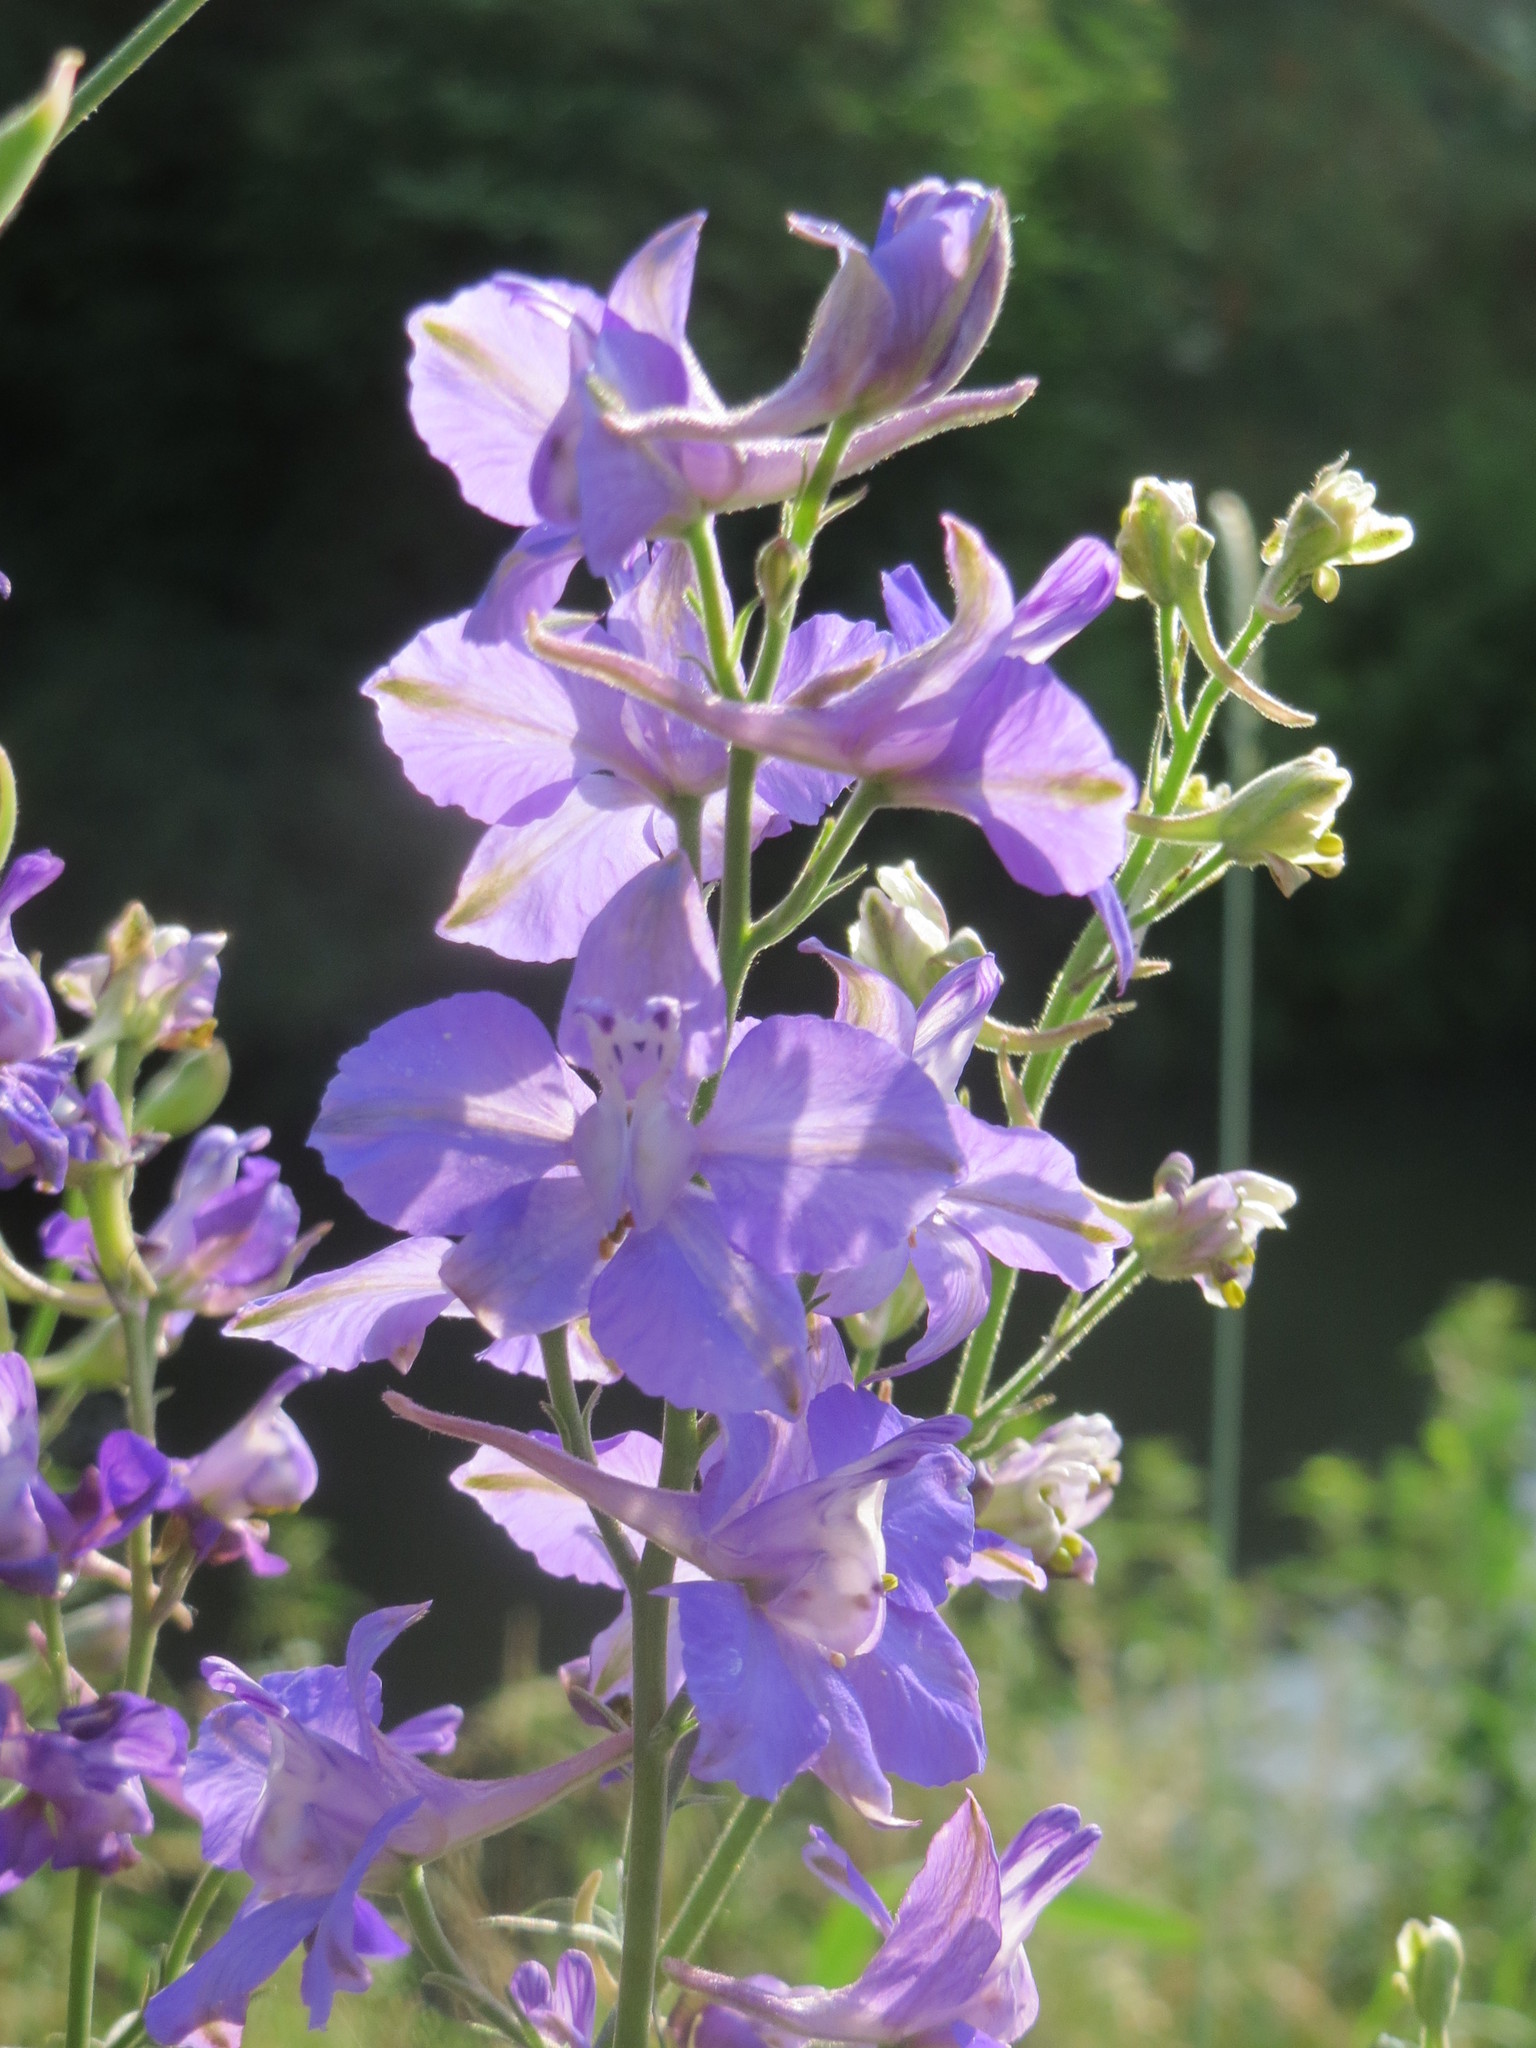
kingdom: Plantae
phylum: Tracheophyta
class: Magnoliopsida
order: Ranunculales
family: Ranunculaceae
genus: Delphinium
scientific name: Delphinium ajacis
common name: Doubtful knight's-spur
